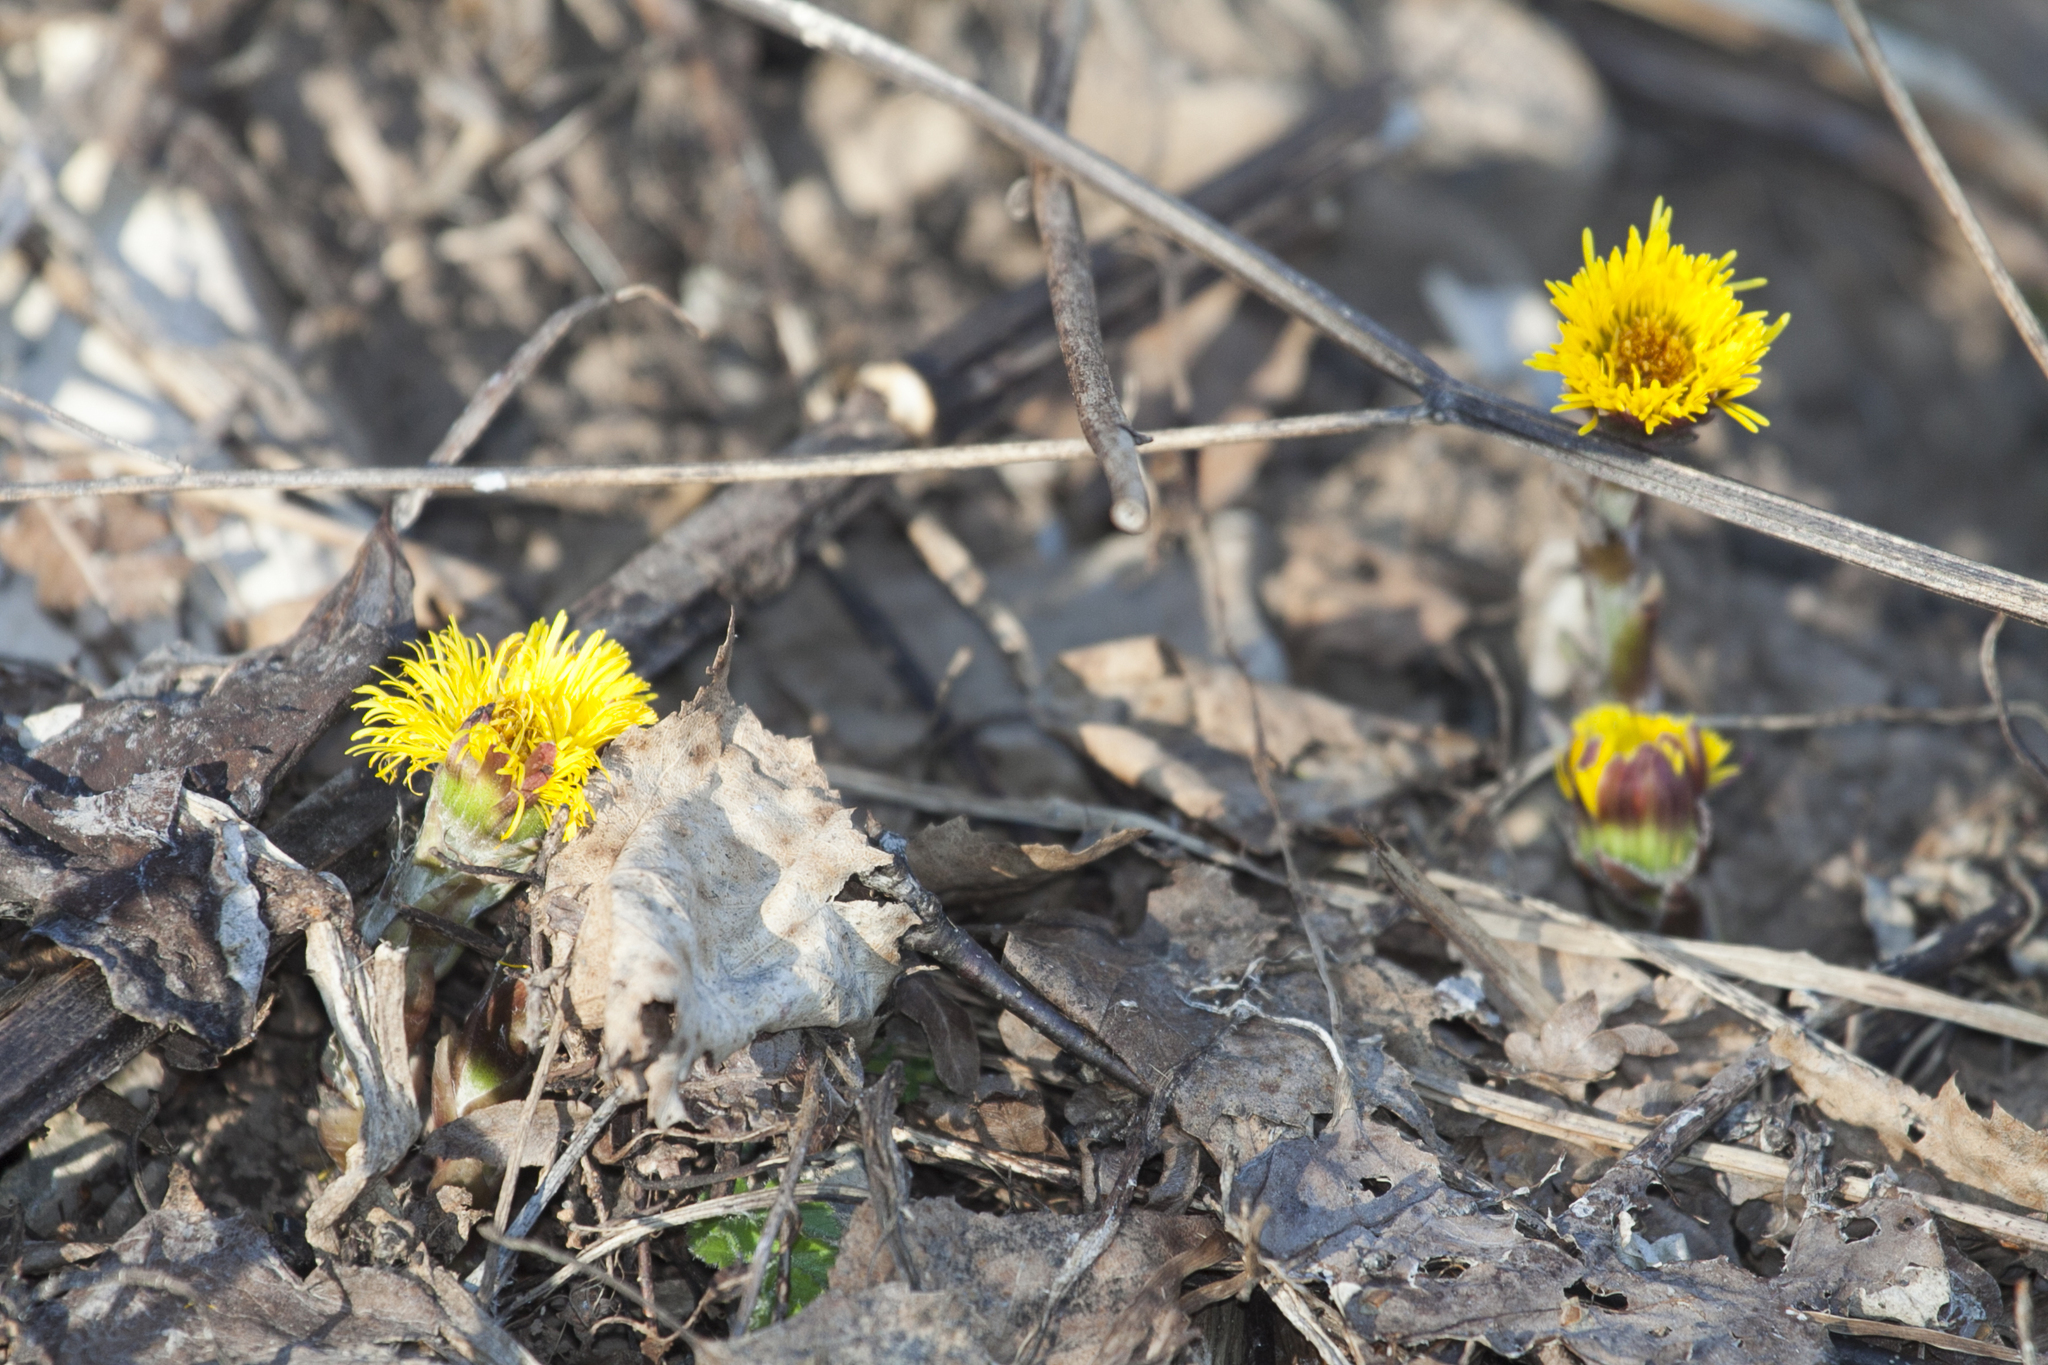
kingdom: Plantae
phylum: Tracheophyta
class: Magnoliopsida
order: Asterales
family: Asteraceae
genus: Tussilago
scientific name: Tussilago farfara
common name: Coltsfoot
